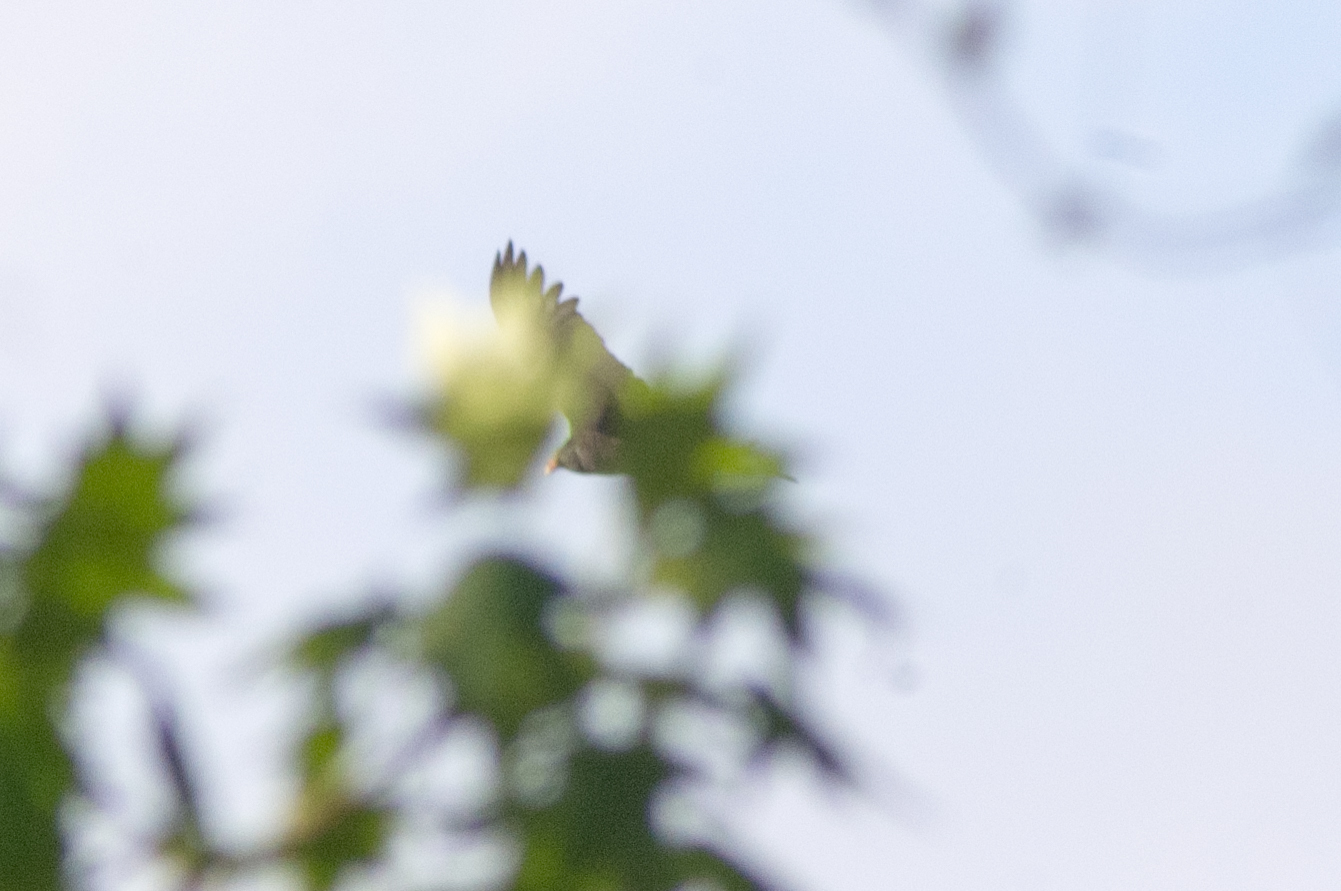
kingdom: Animalia
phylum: Chordata
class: Aves
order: Accipitriformes
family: Cathartidae
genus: Cathartes
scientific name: Cathartes aura
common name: Turkey vulture
